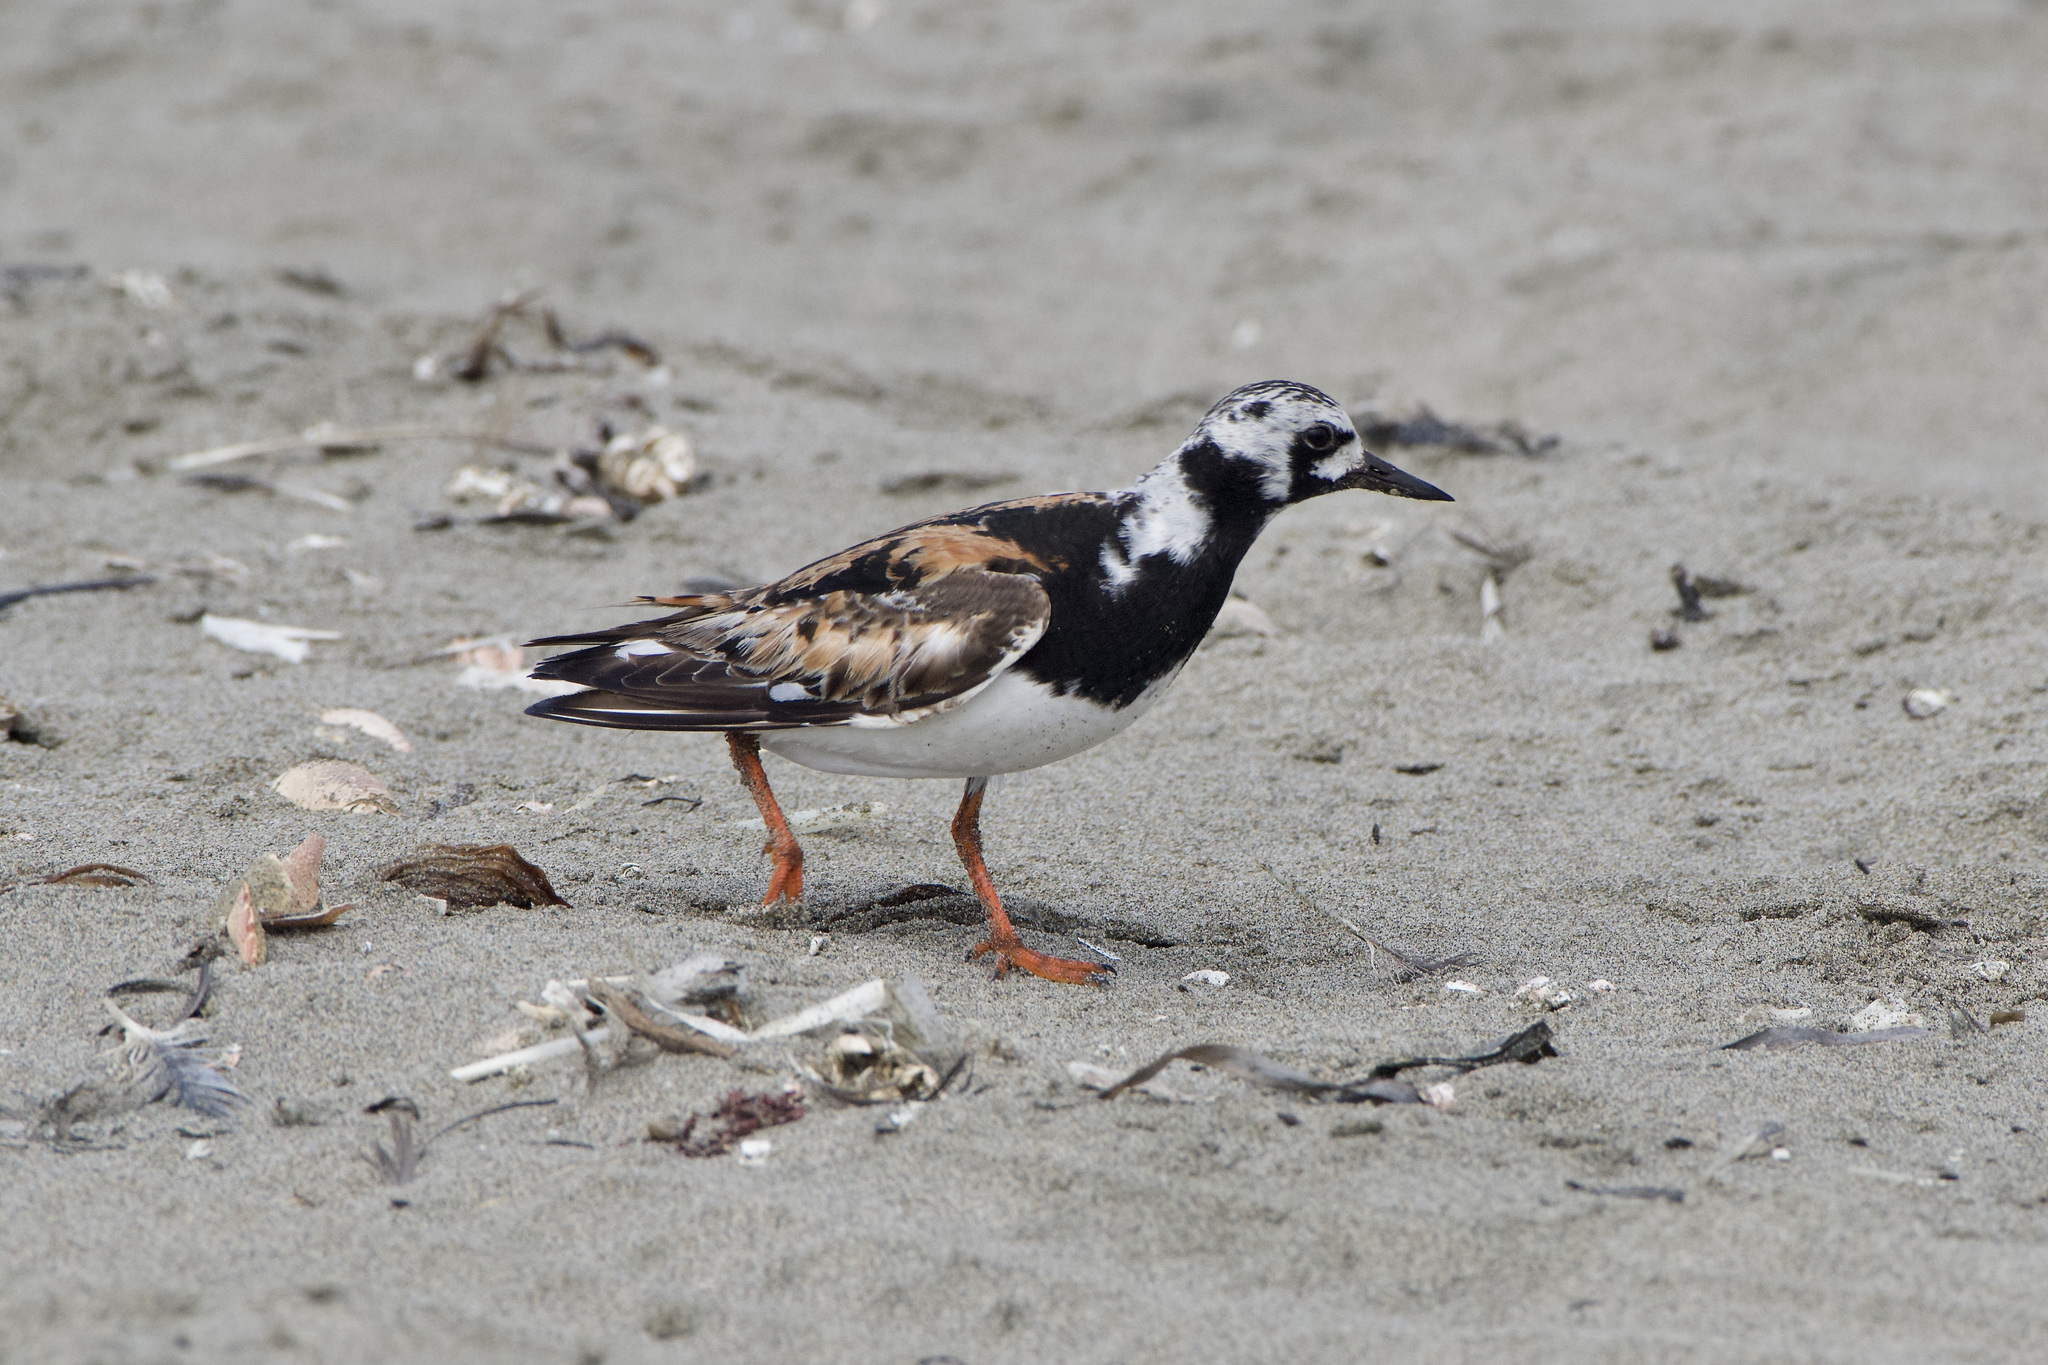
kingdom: Animalia
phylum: Chordata
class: Aves
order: Charadriiformes
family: Scolopacidae
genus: Arenaria
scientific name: Arenaria interpres
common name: Ruddy turnstone
